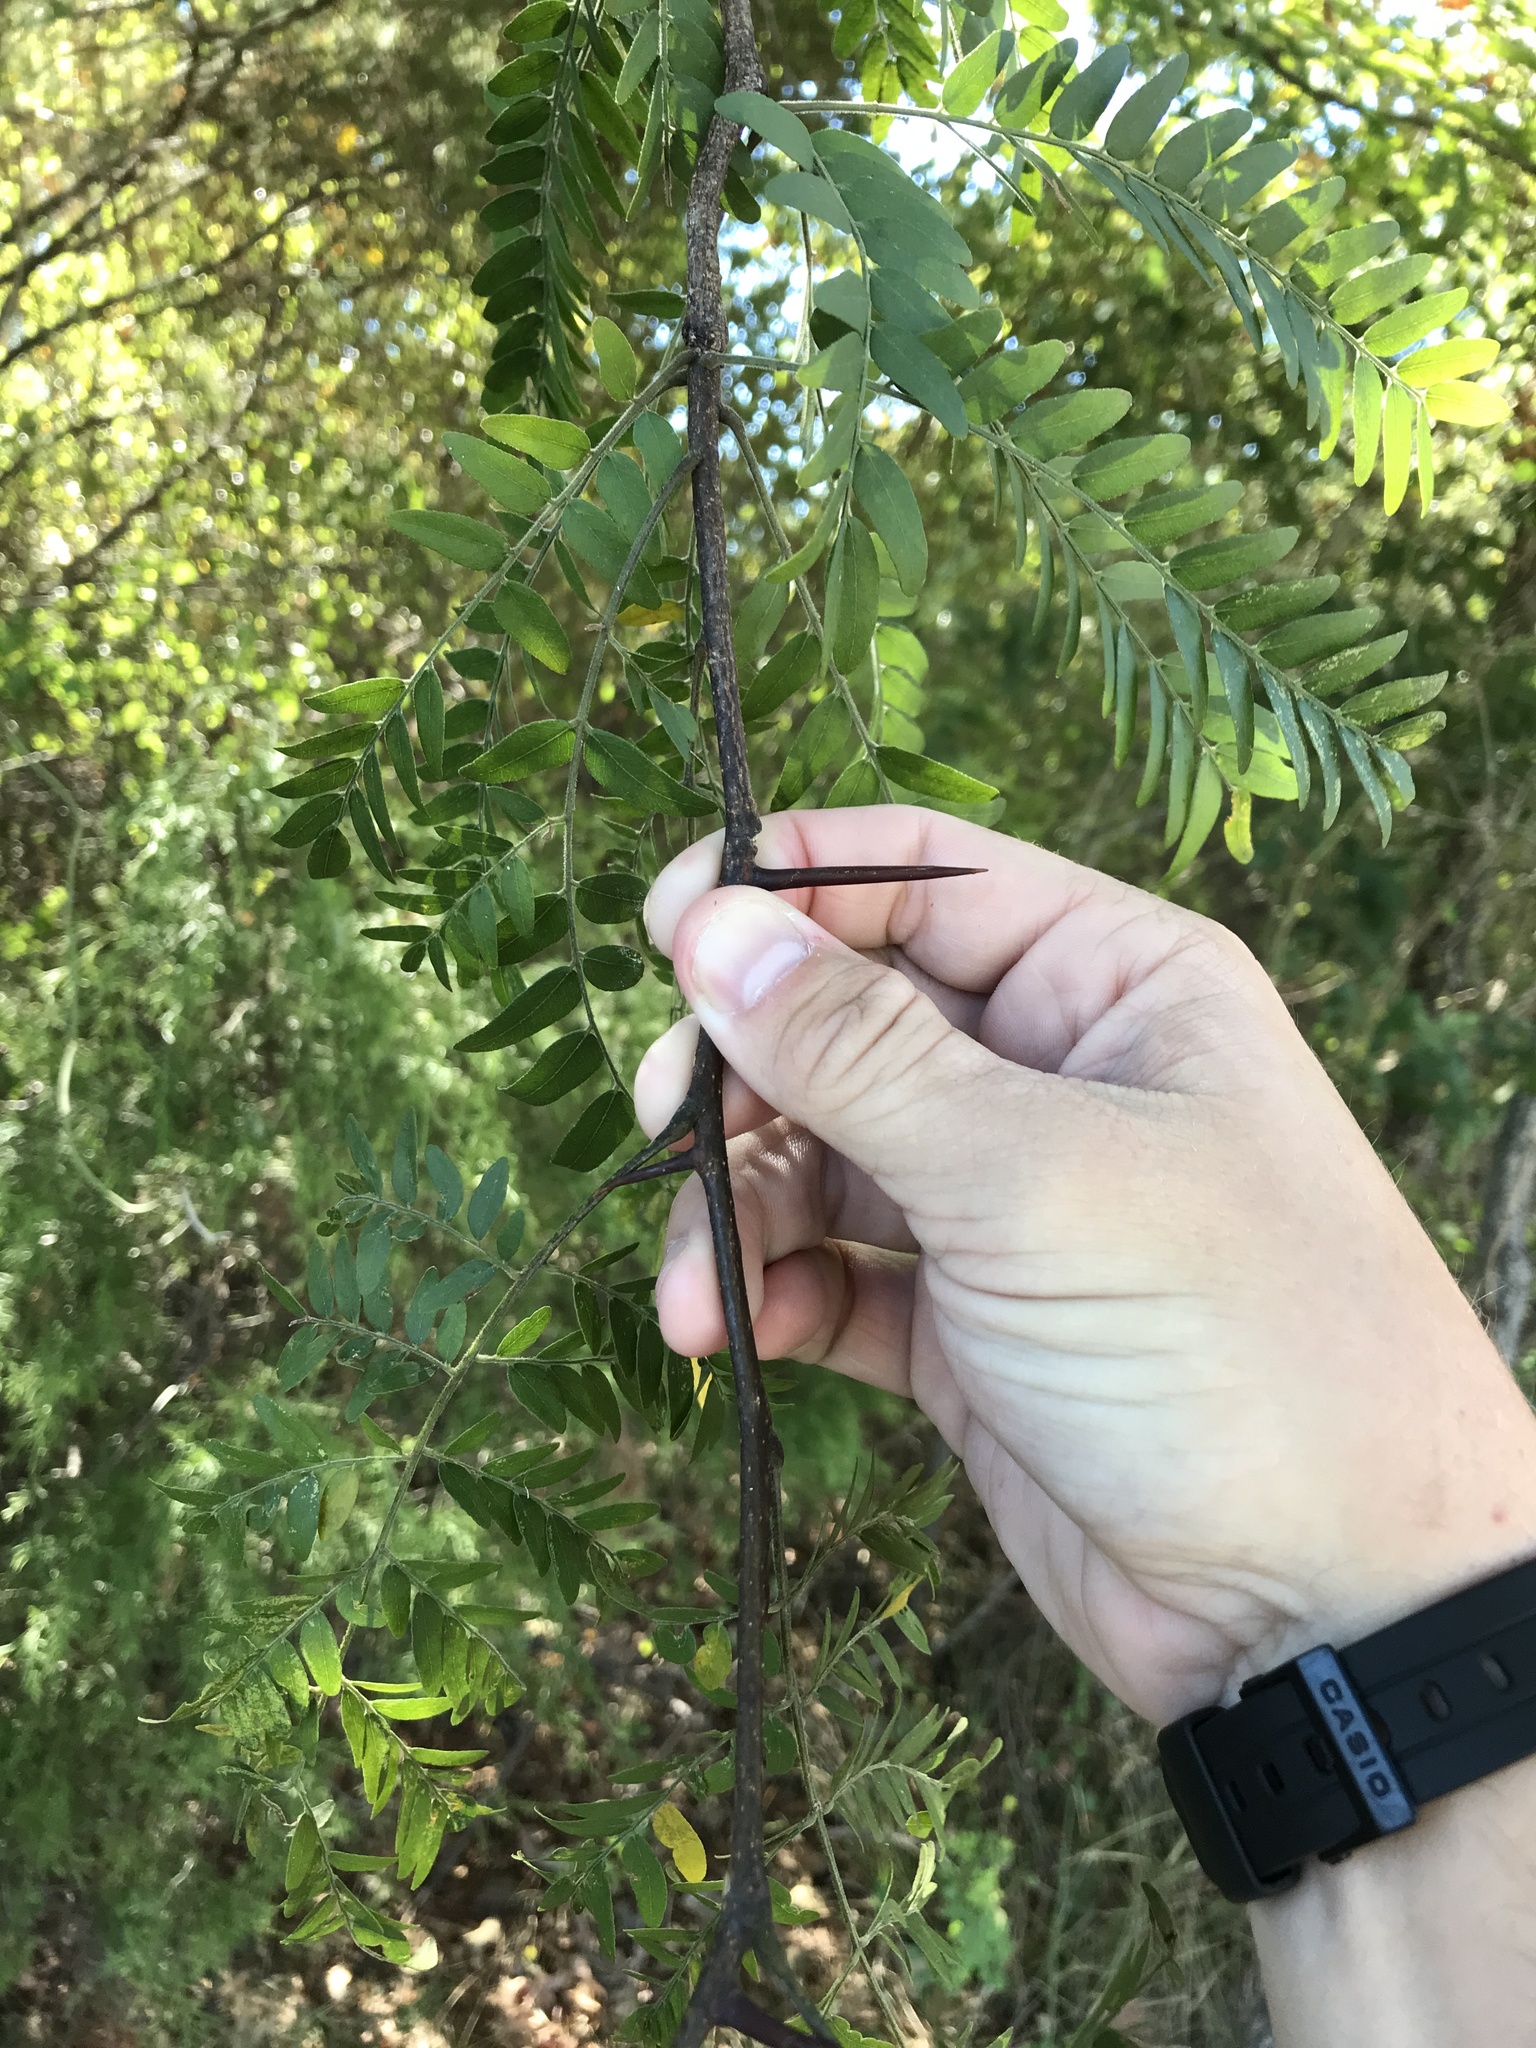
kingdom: Plantae
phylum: Tracheophyta
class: Magnoliopsida
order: Fabales
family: Fabaceae
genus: Gleditsia
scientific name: Gleditsia triacanthos
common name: Common honeylocust
